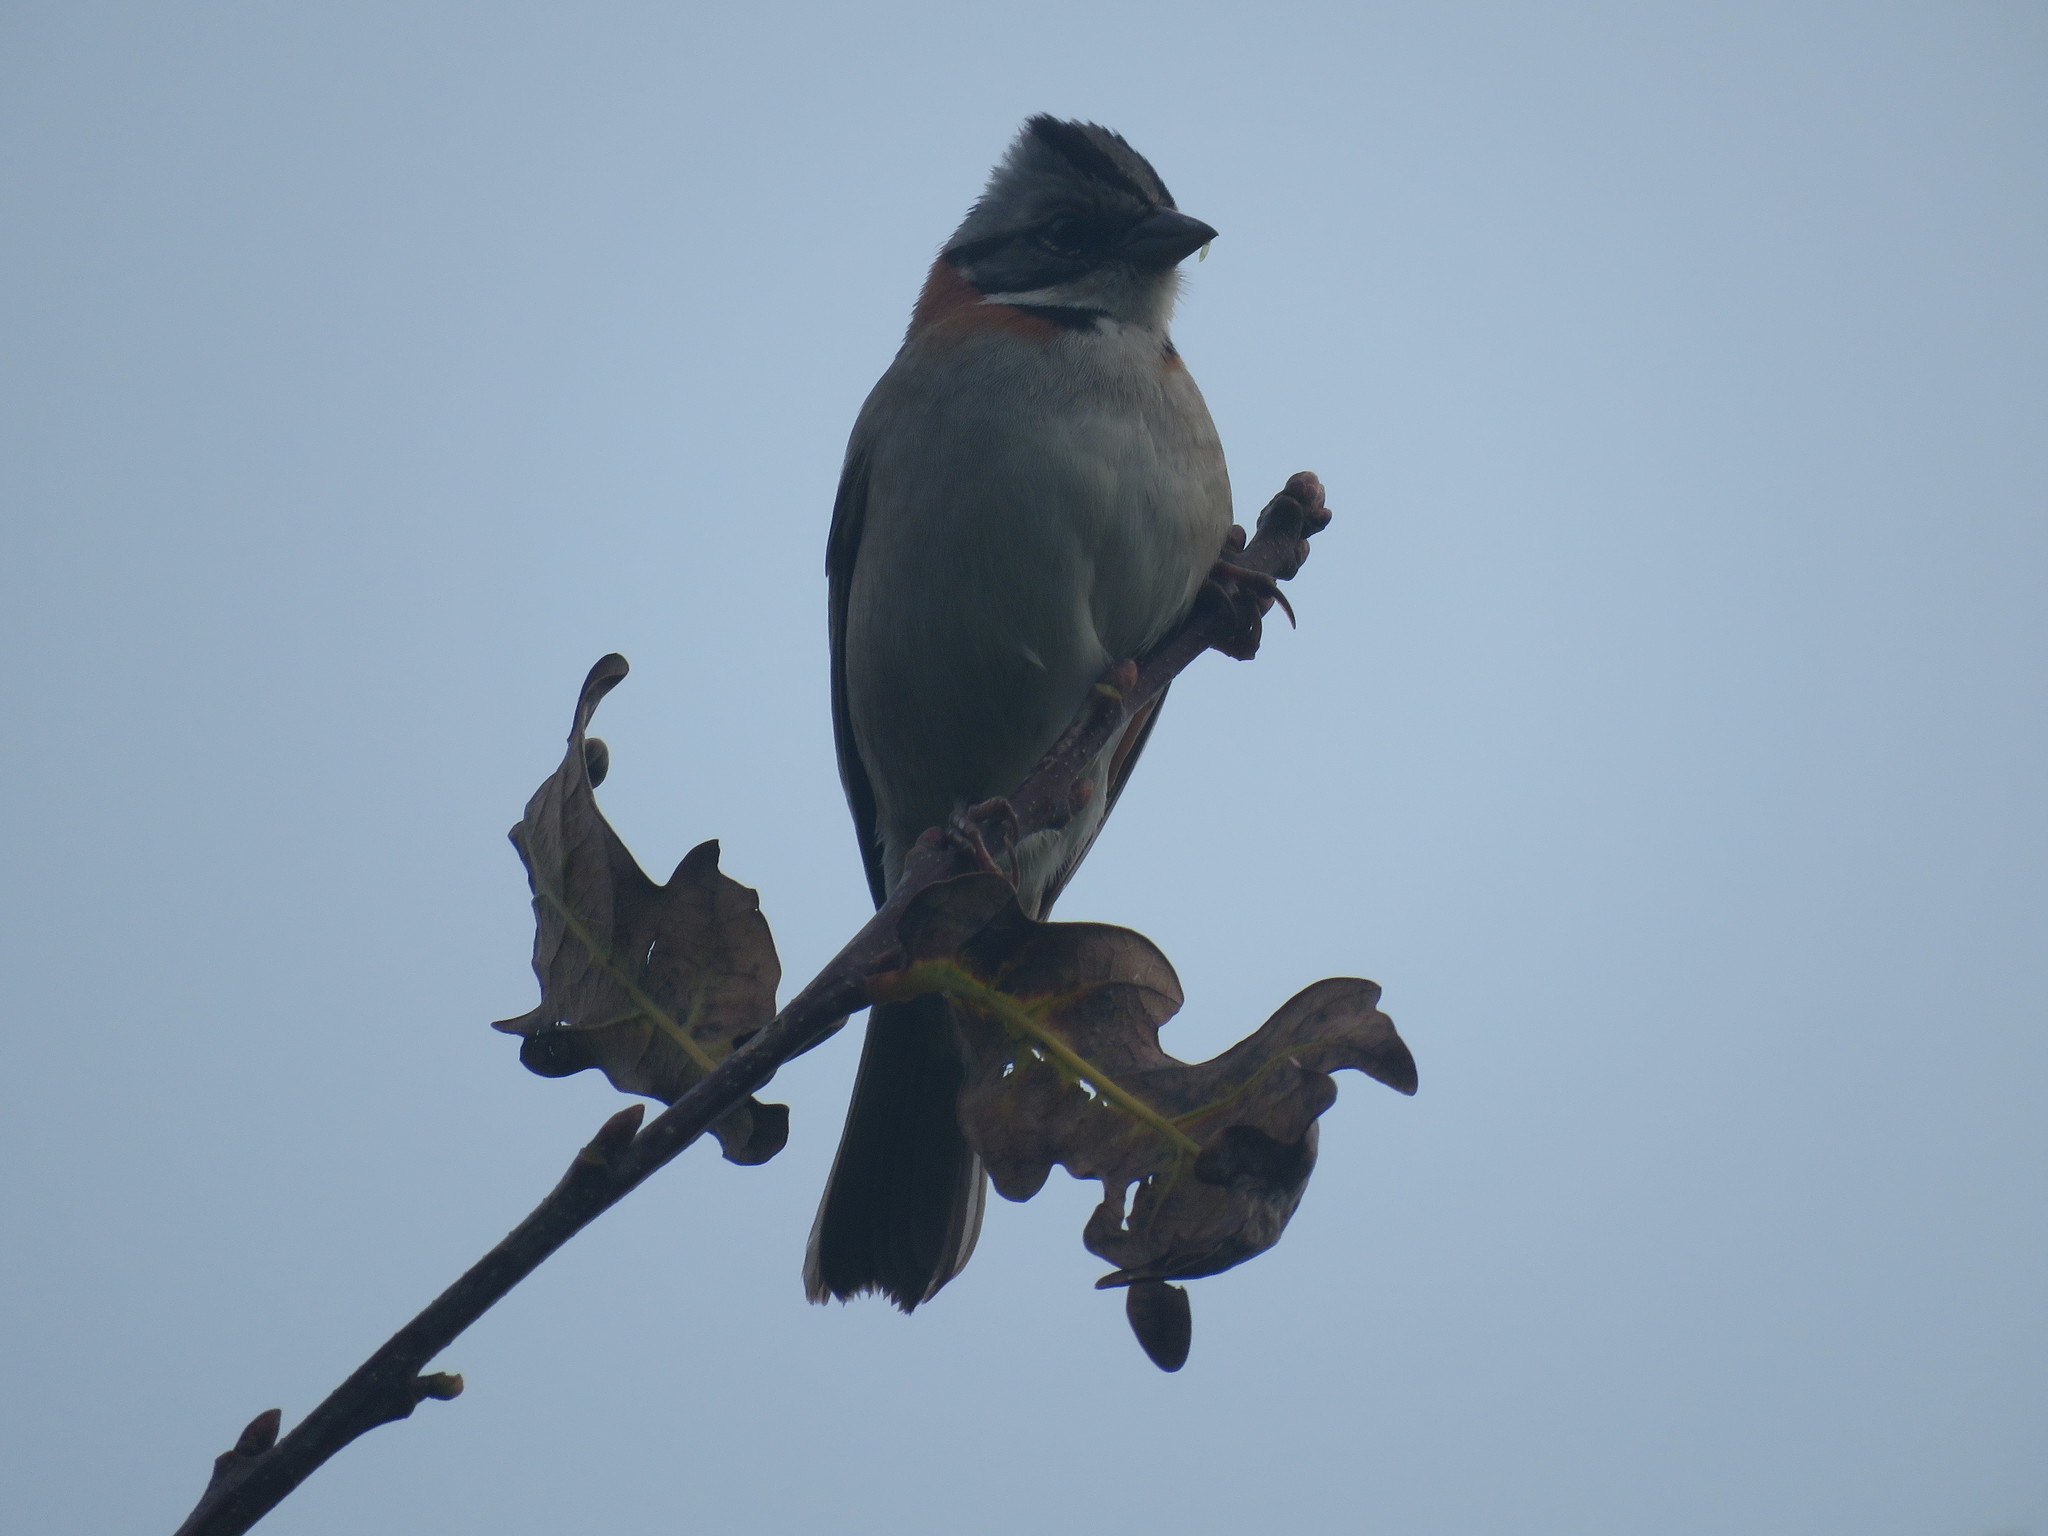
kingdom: Animalia
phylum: Chordata
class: Aves
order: Passeriformes
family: Passerellidae
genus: Zonotrichia
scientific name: Zonotrichia capensis
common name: Rufous-collared sparrow
